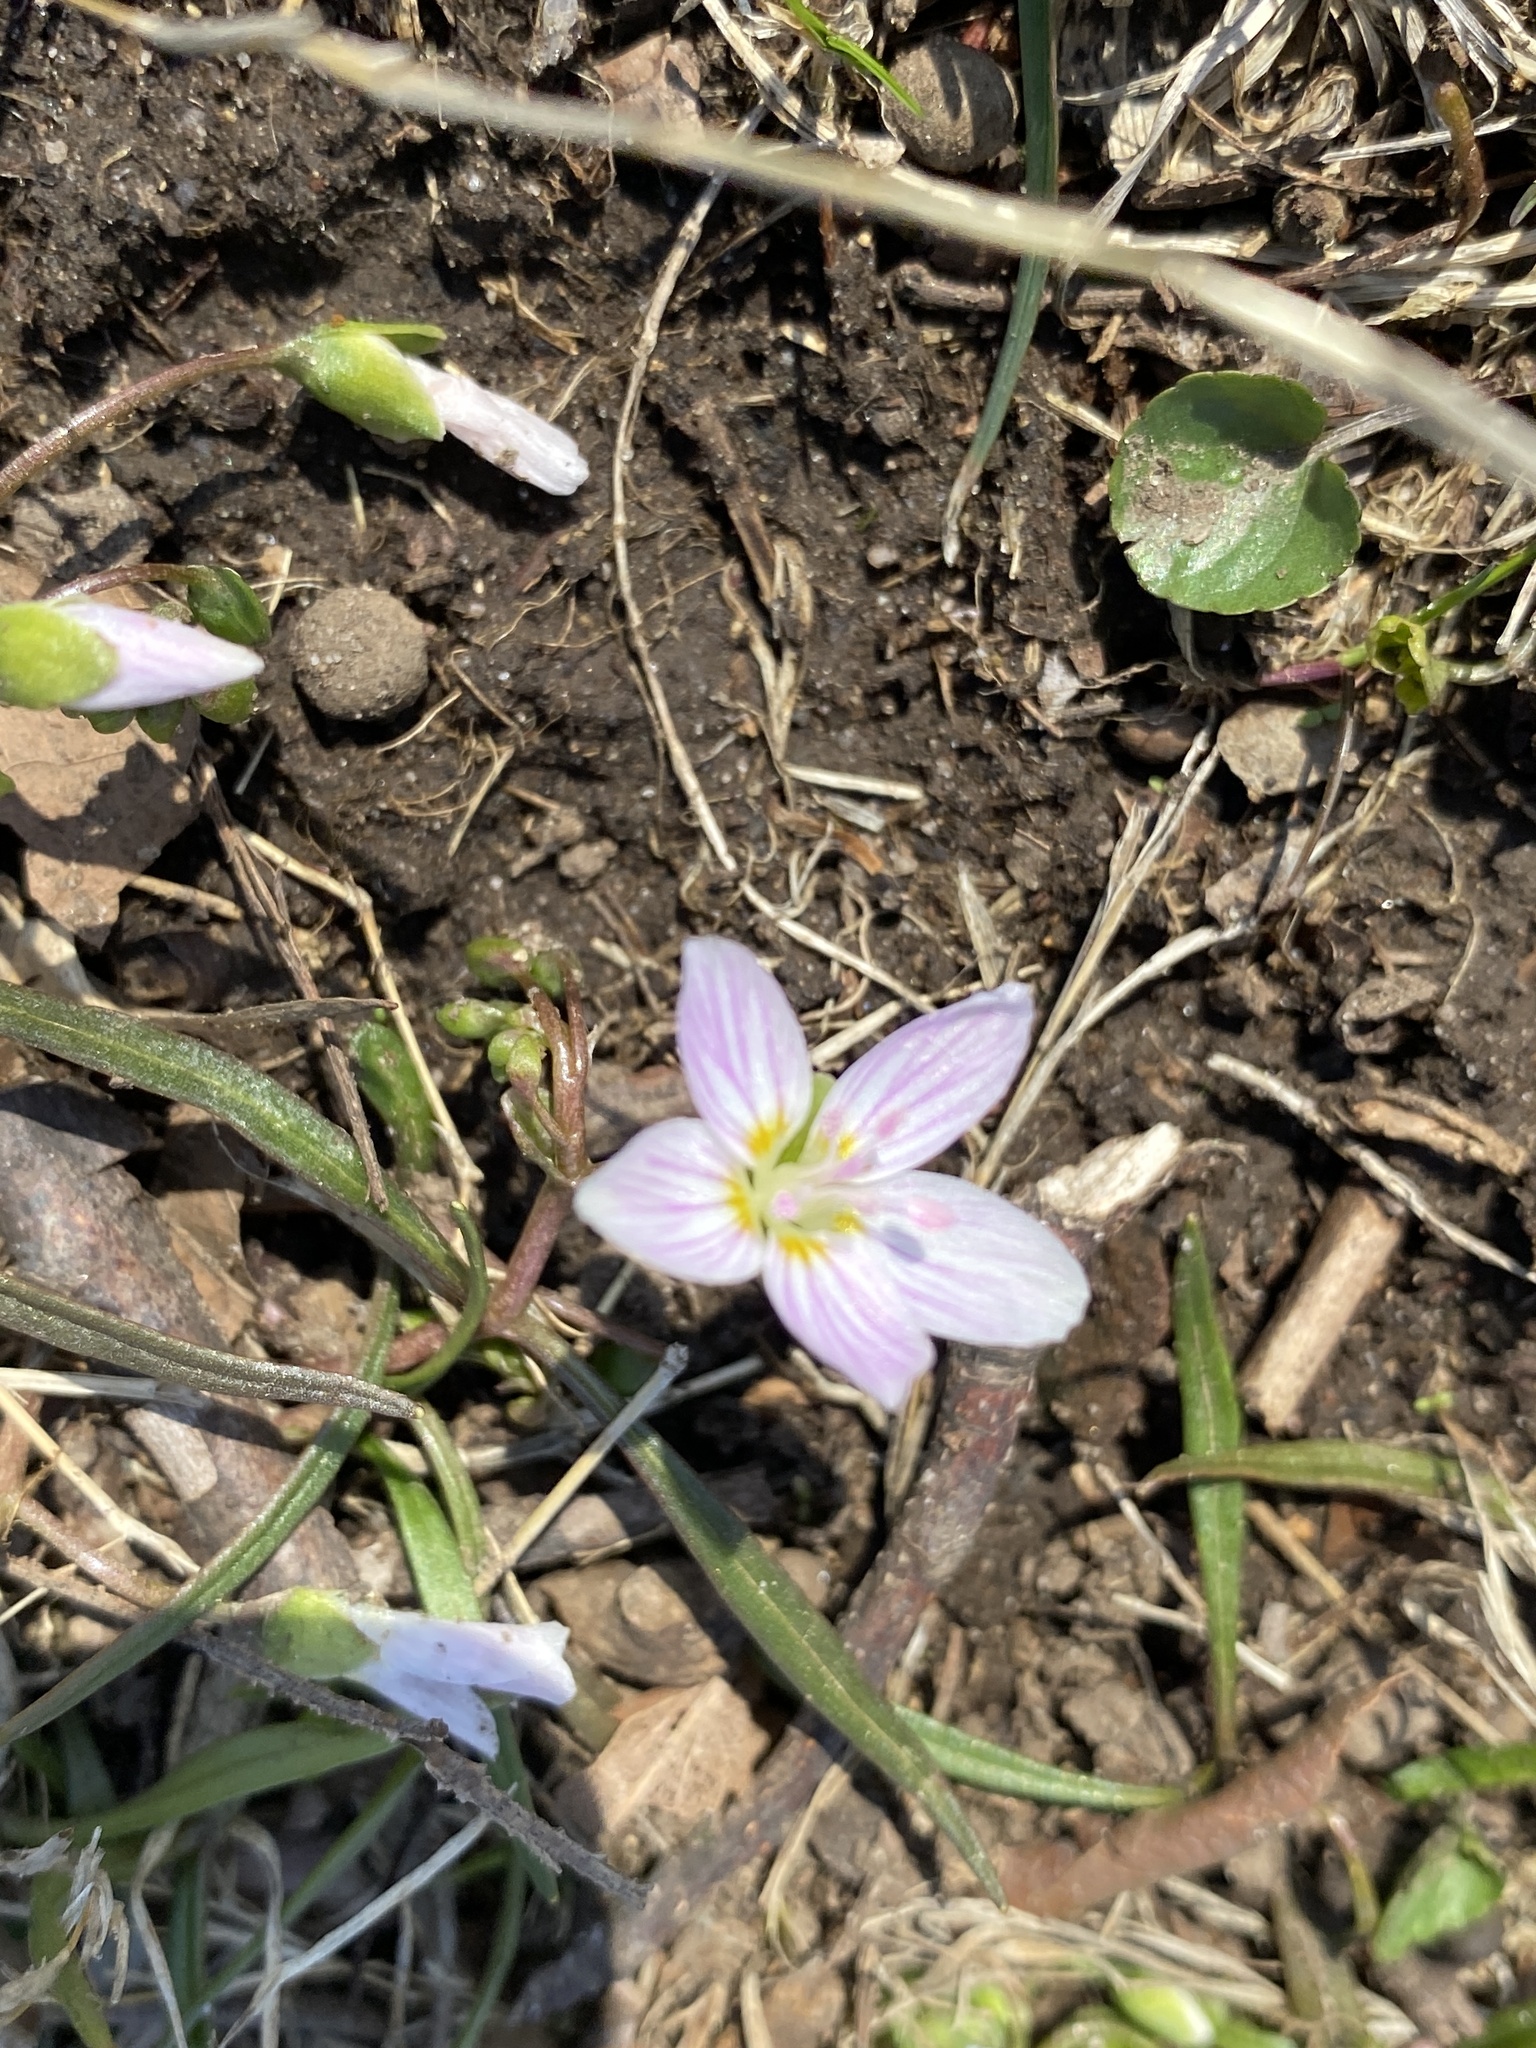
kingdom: Plantae
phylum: Tracheophyta
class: Magnoliopsida
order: Caryophyllales
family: Montiaceae
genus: Claytonia
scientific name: Claytonia virginica
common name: Virginia springbeauty
